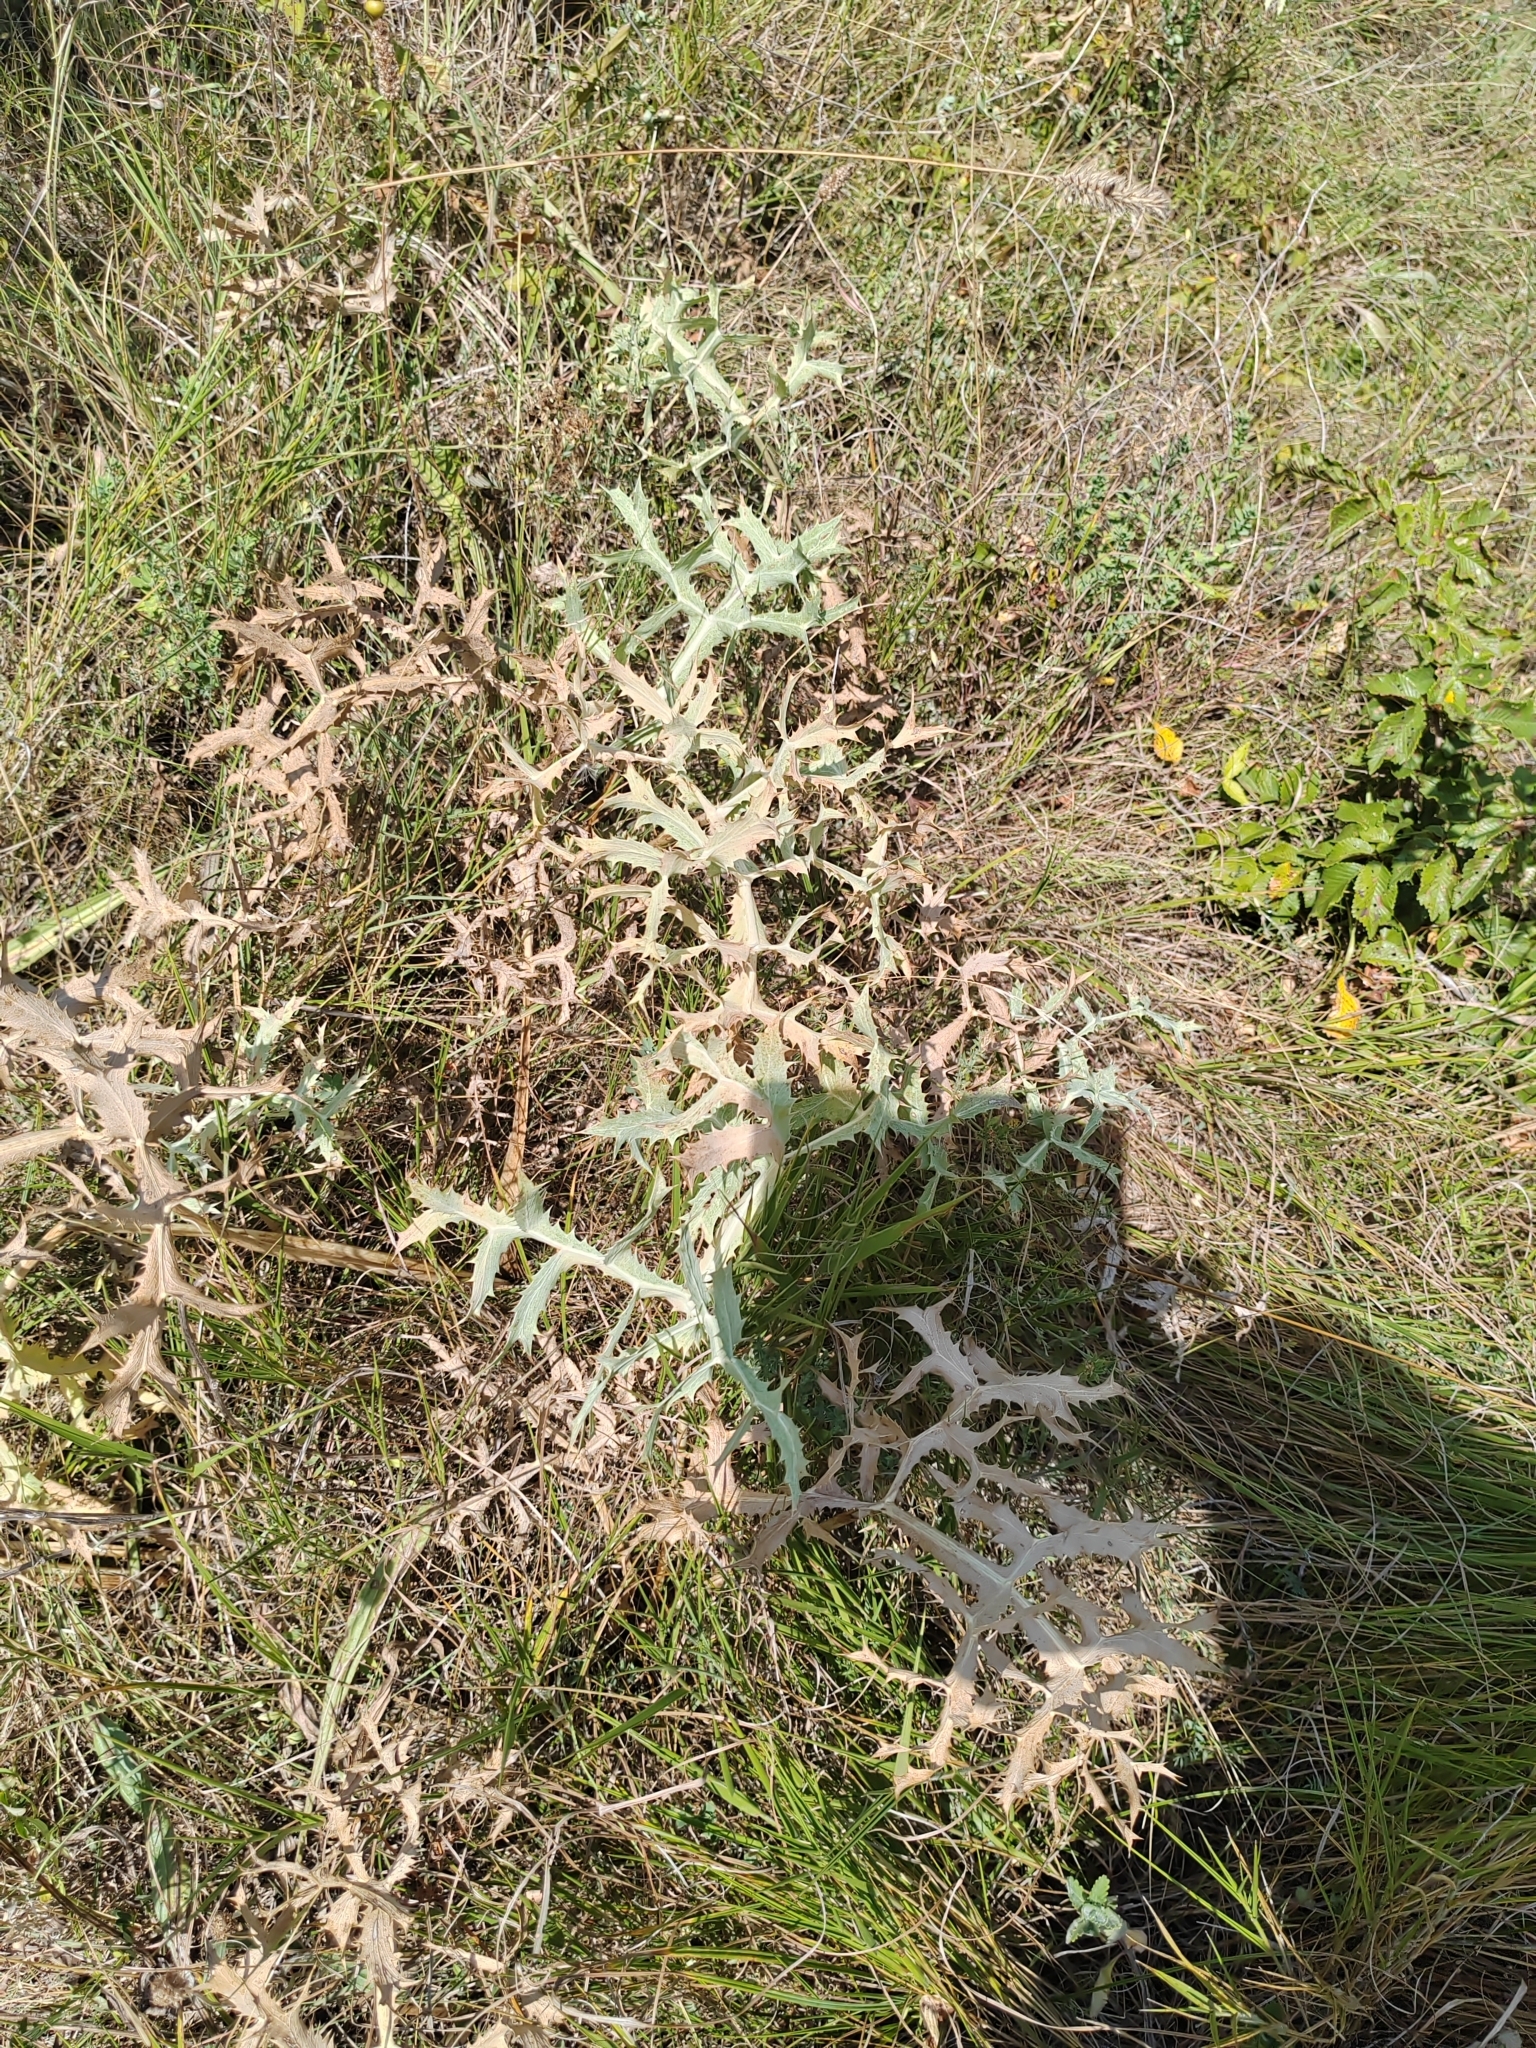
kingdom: Plantae
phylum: Tracheophyta
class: Magnoliopsida
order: Apiales
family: Apiaceae
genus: Eryngium
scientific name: Eryngium campestre
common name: Field eryngo
